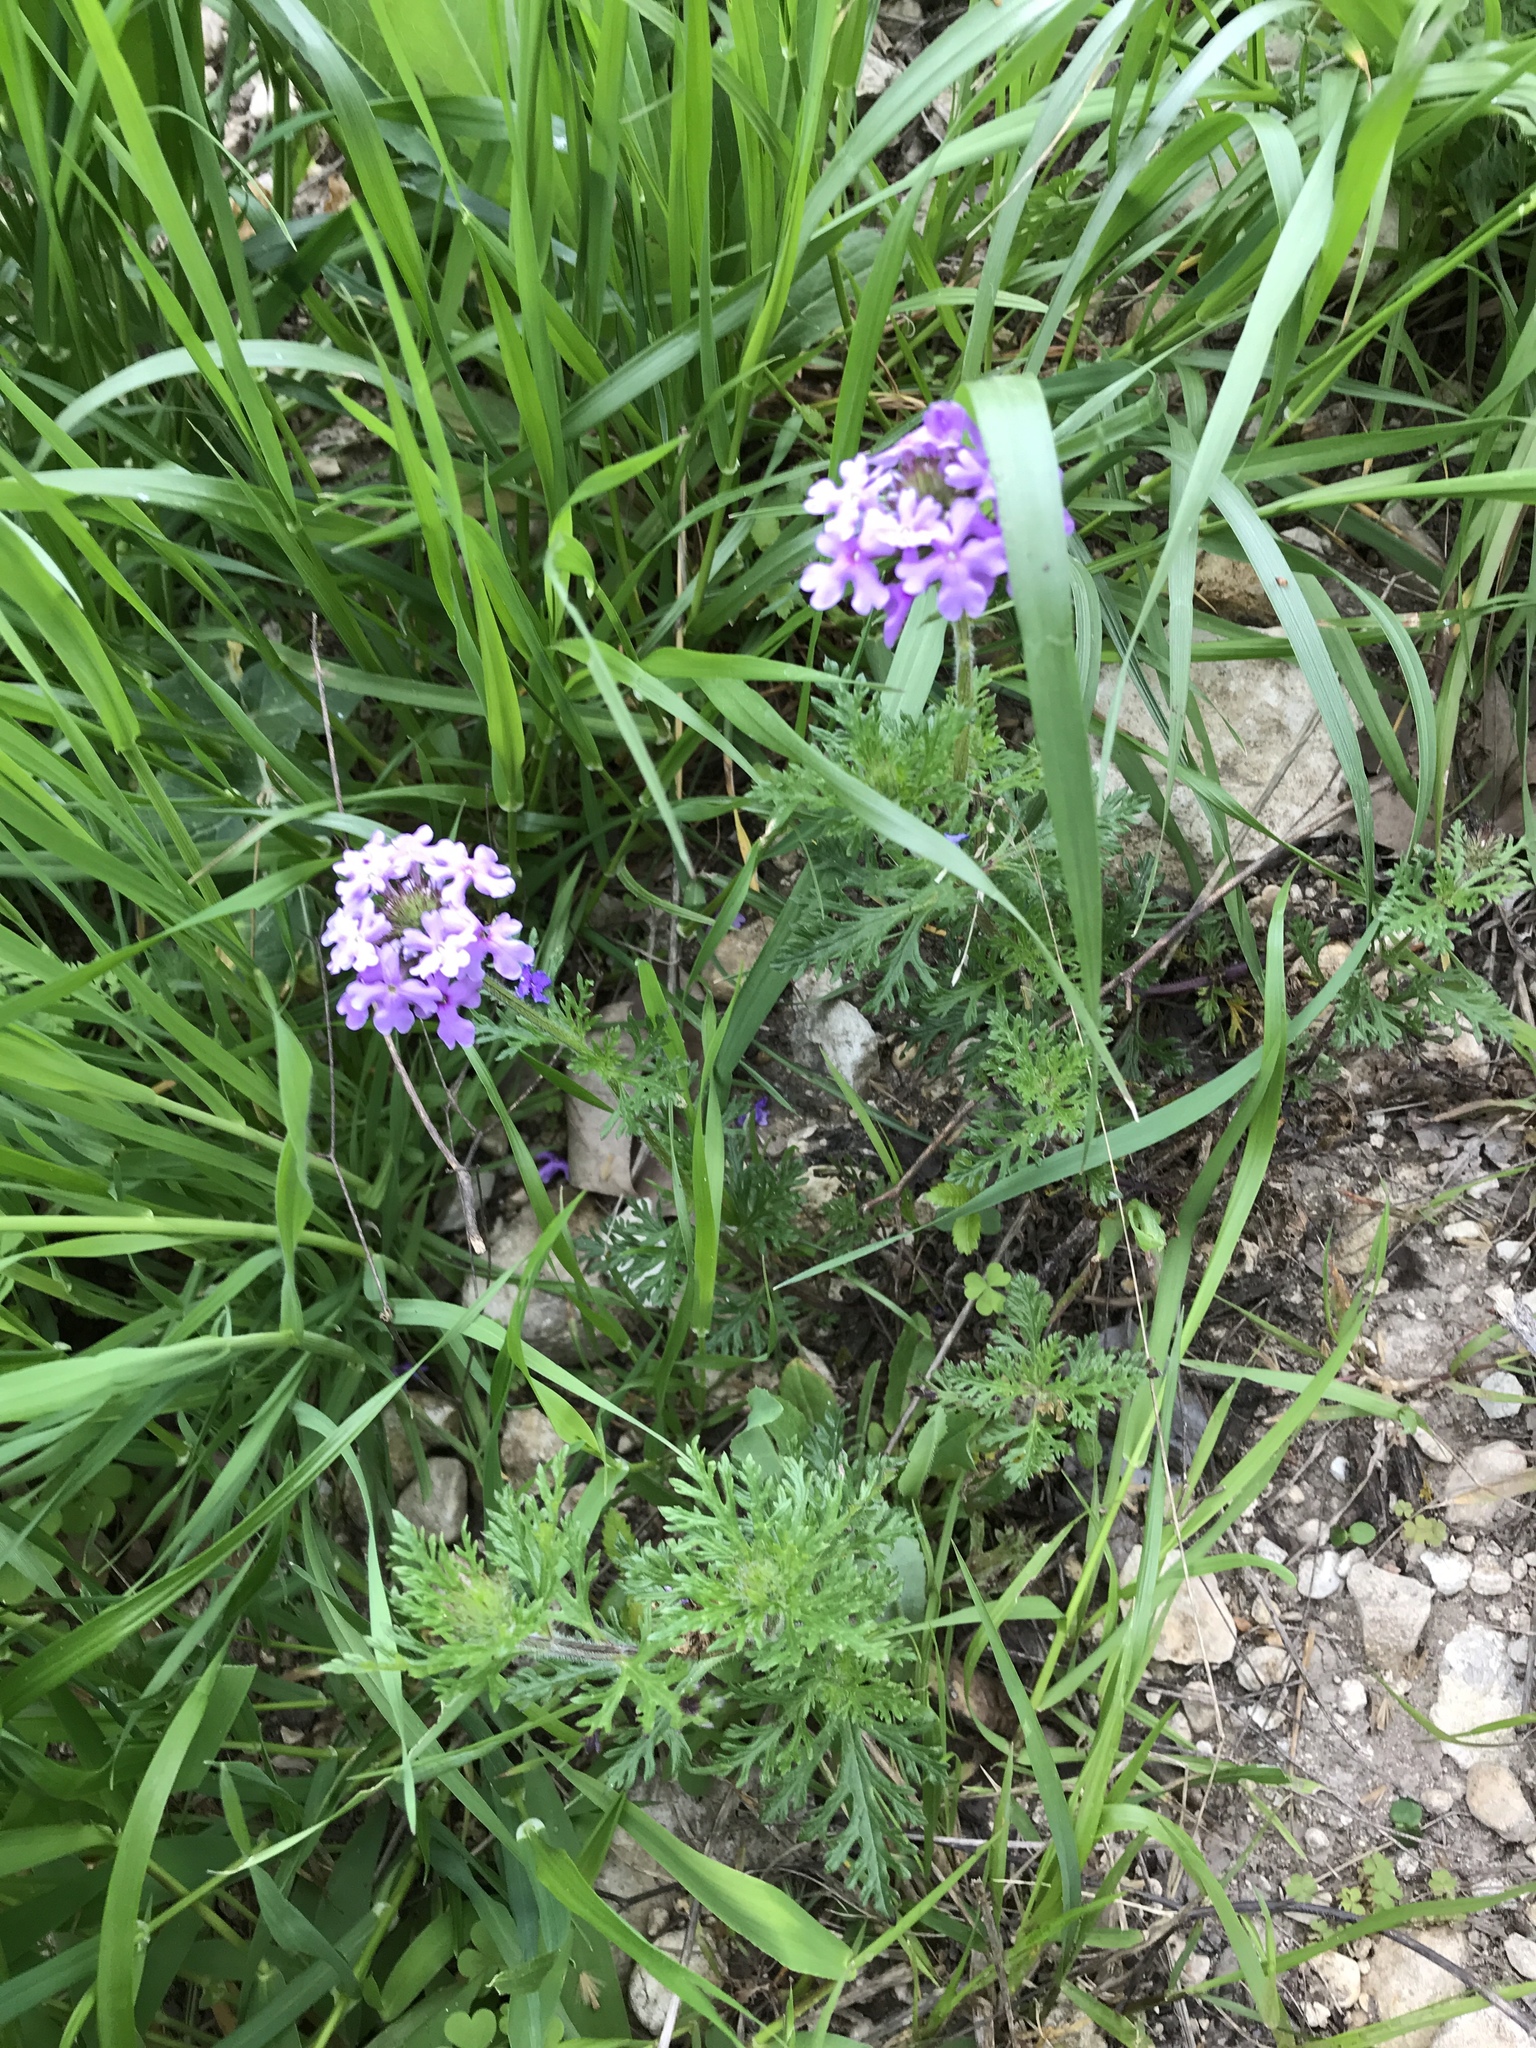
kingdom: Plantae
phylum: Tracheophyta
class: Magnoliopsida
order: Lamiales
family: Verbenaceae
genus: Verbena
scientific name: Verbena bipinnatifida
